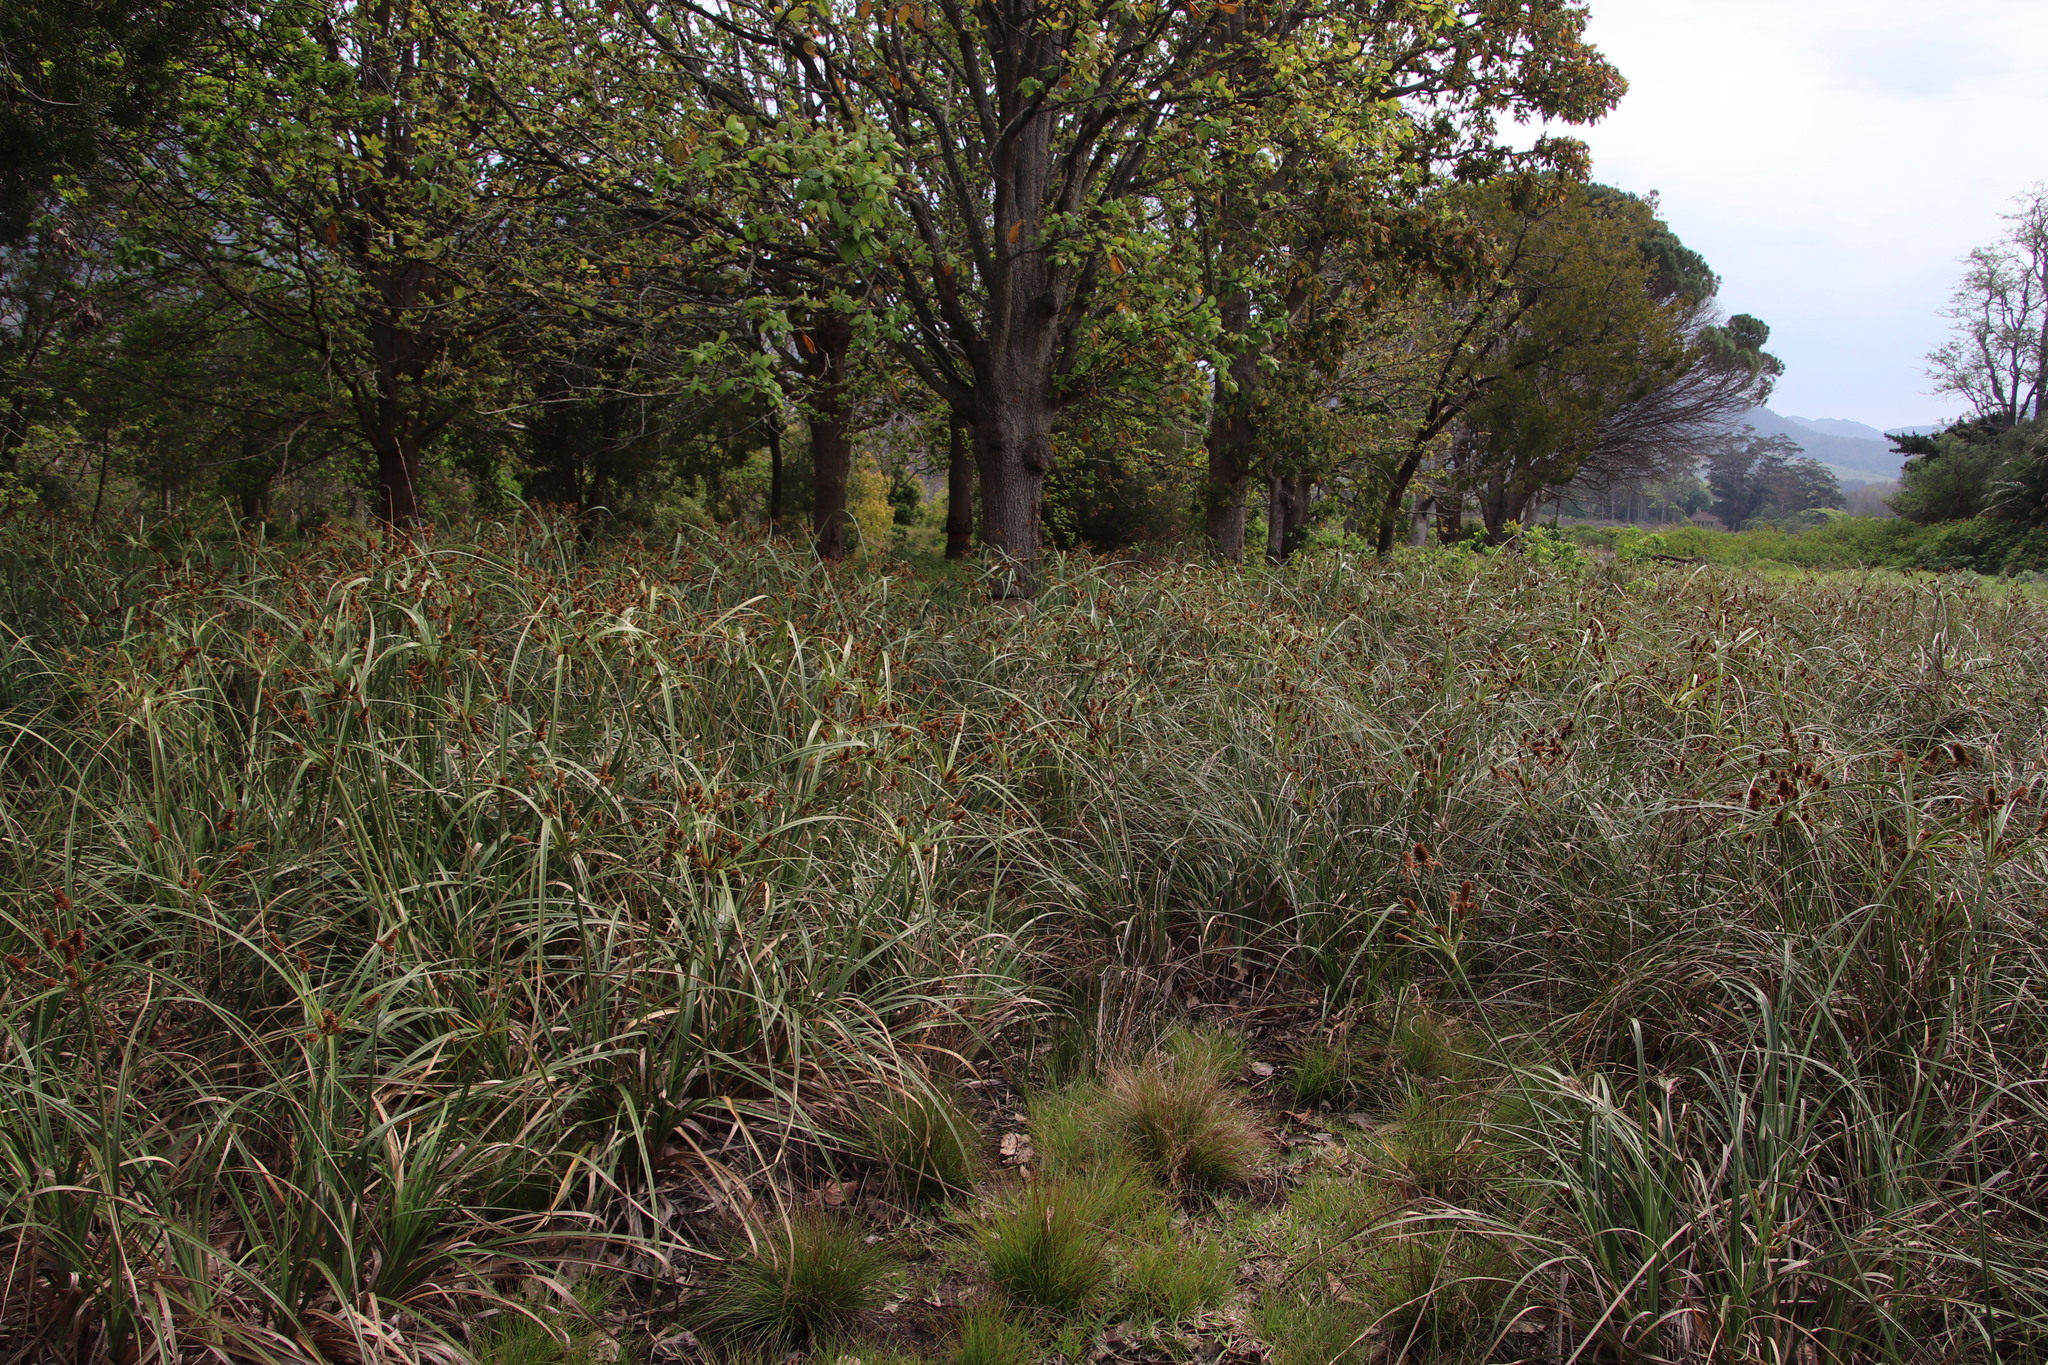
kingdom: Plantae
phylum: Tracheophyta
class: Liliopsida
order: Poales
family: Cyperaceae
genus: Cyperus
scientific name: Cyperus thunbergii
